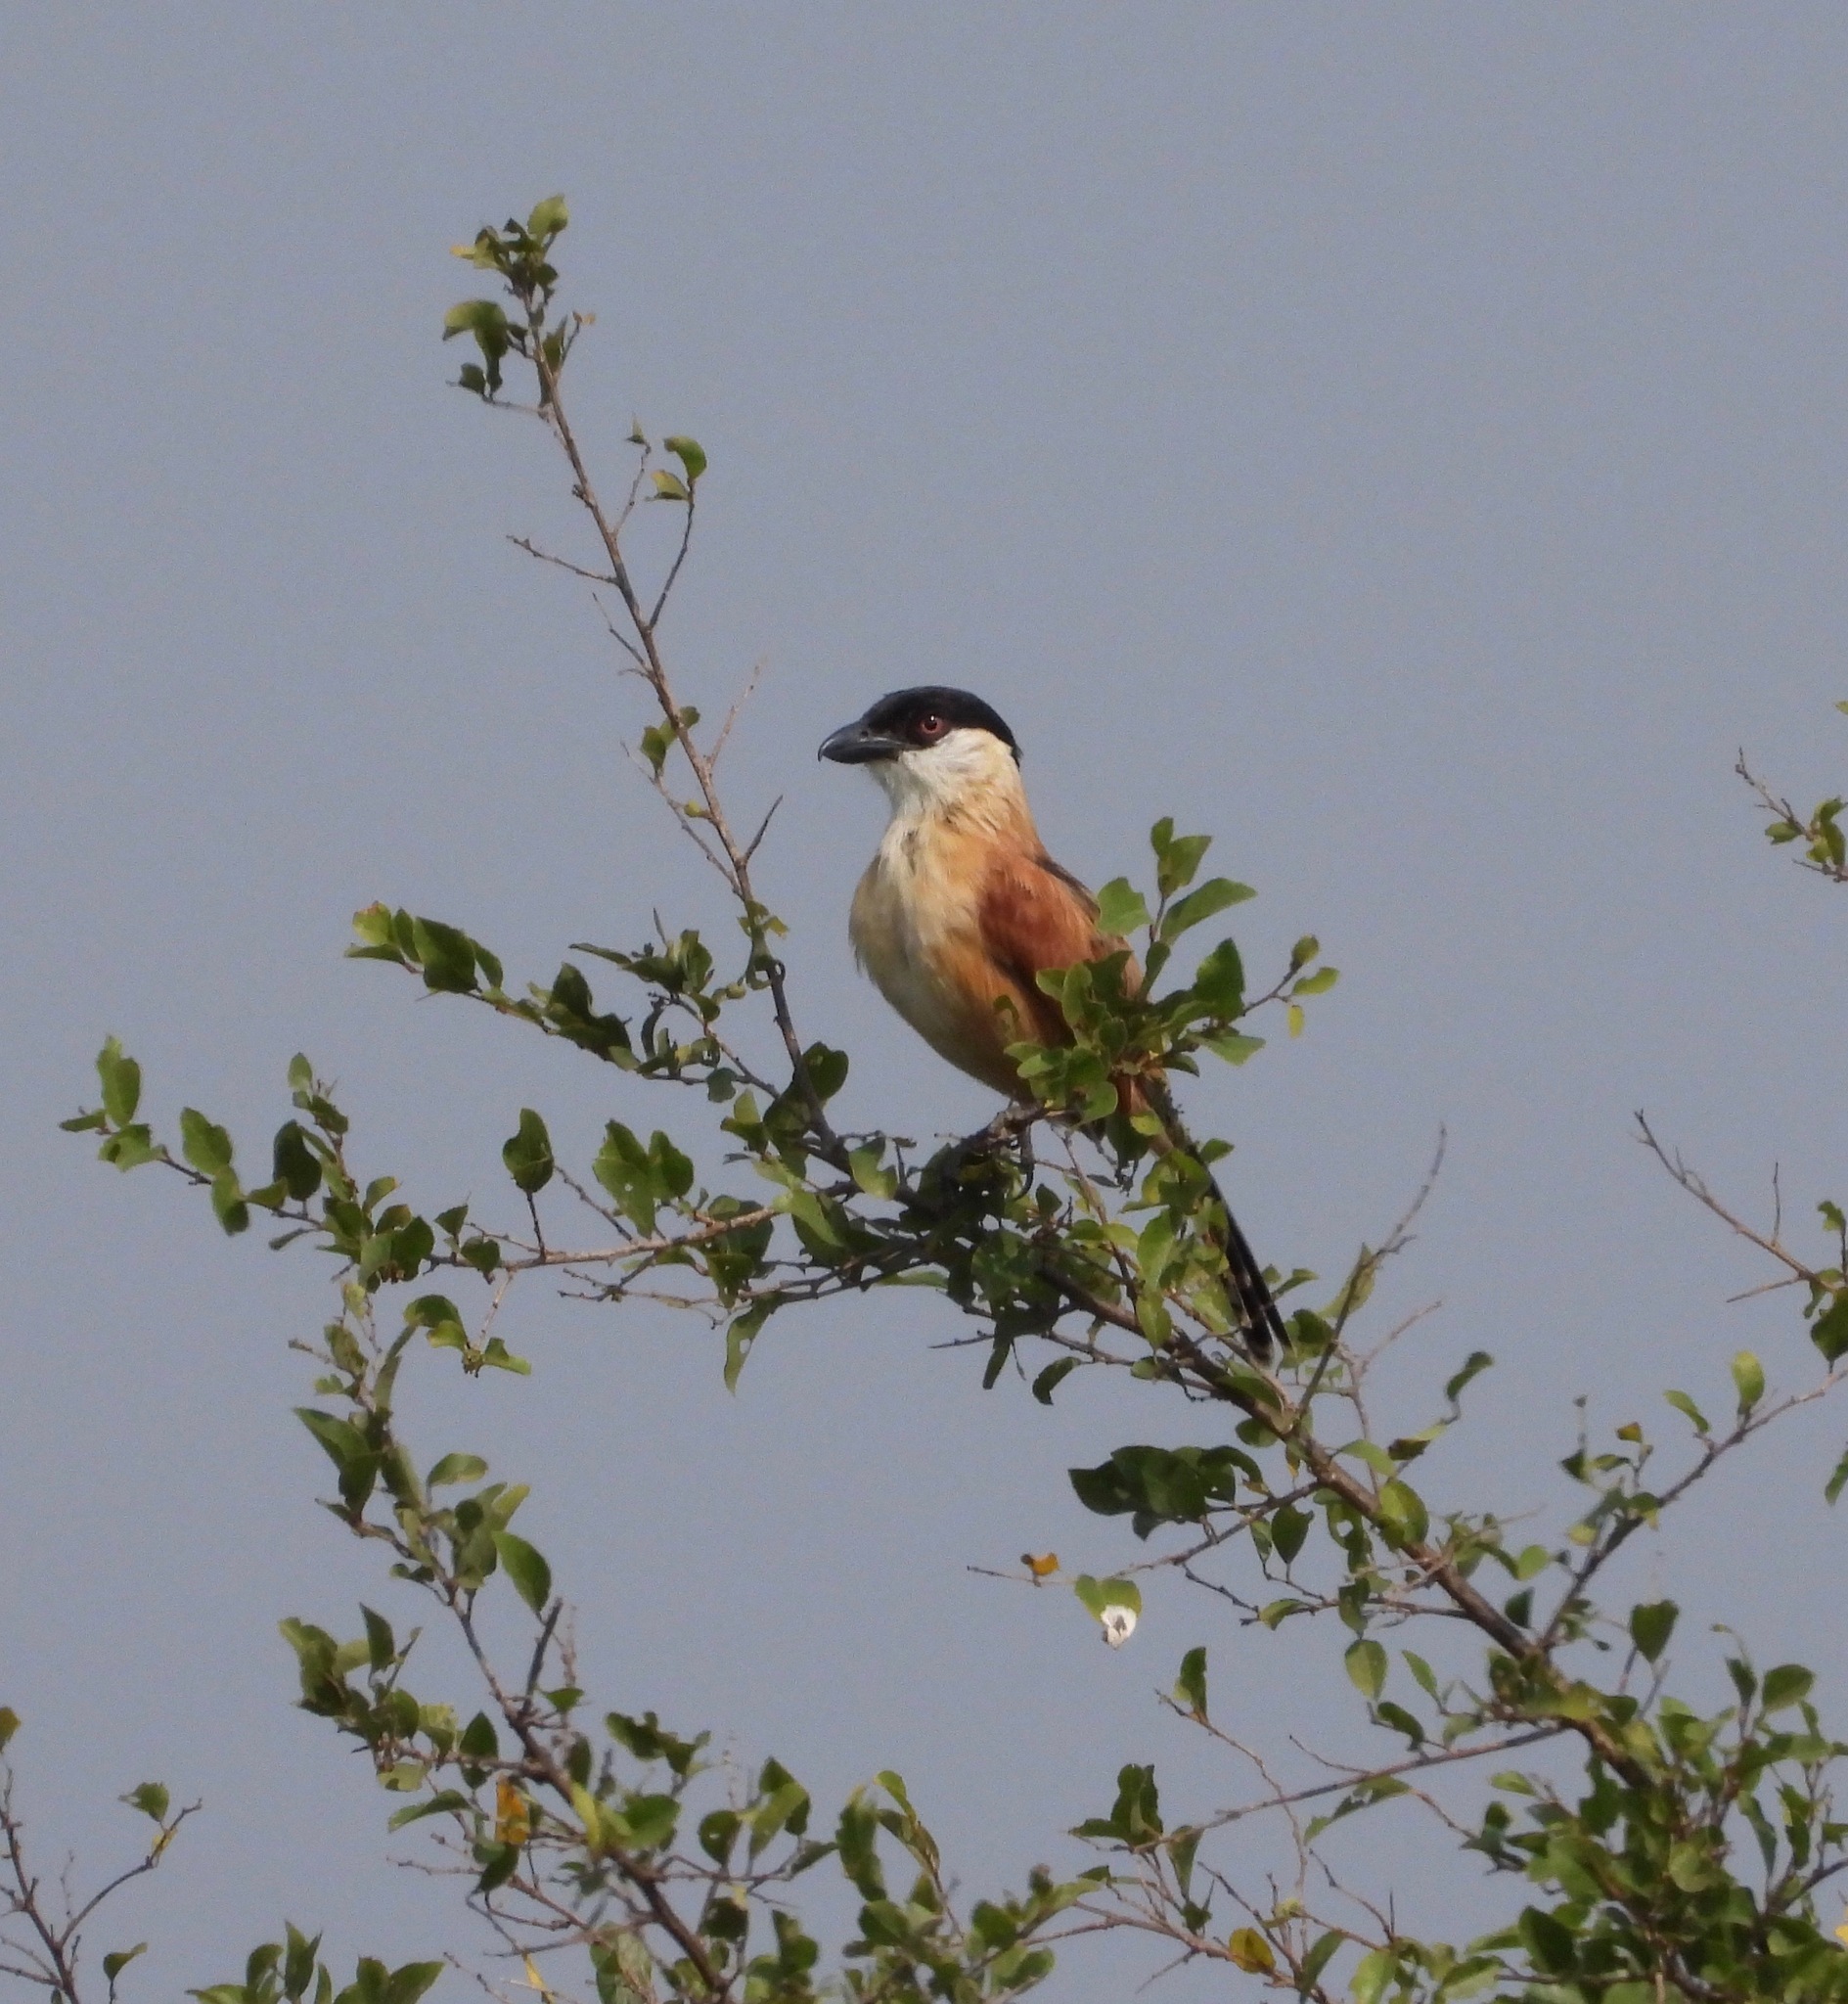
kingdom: Animalia
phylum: Chordata
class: Aves
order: Passeriformes
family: Malaconotidae
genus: Bocagia
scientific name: Bocagia minuta
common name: Marsh tchagra
